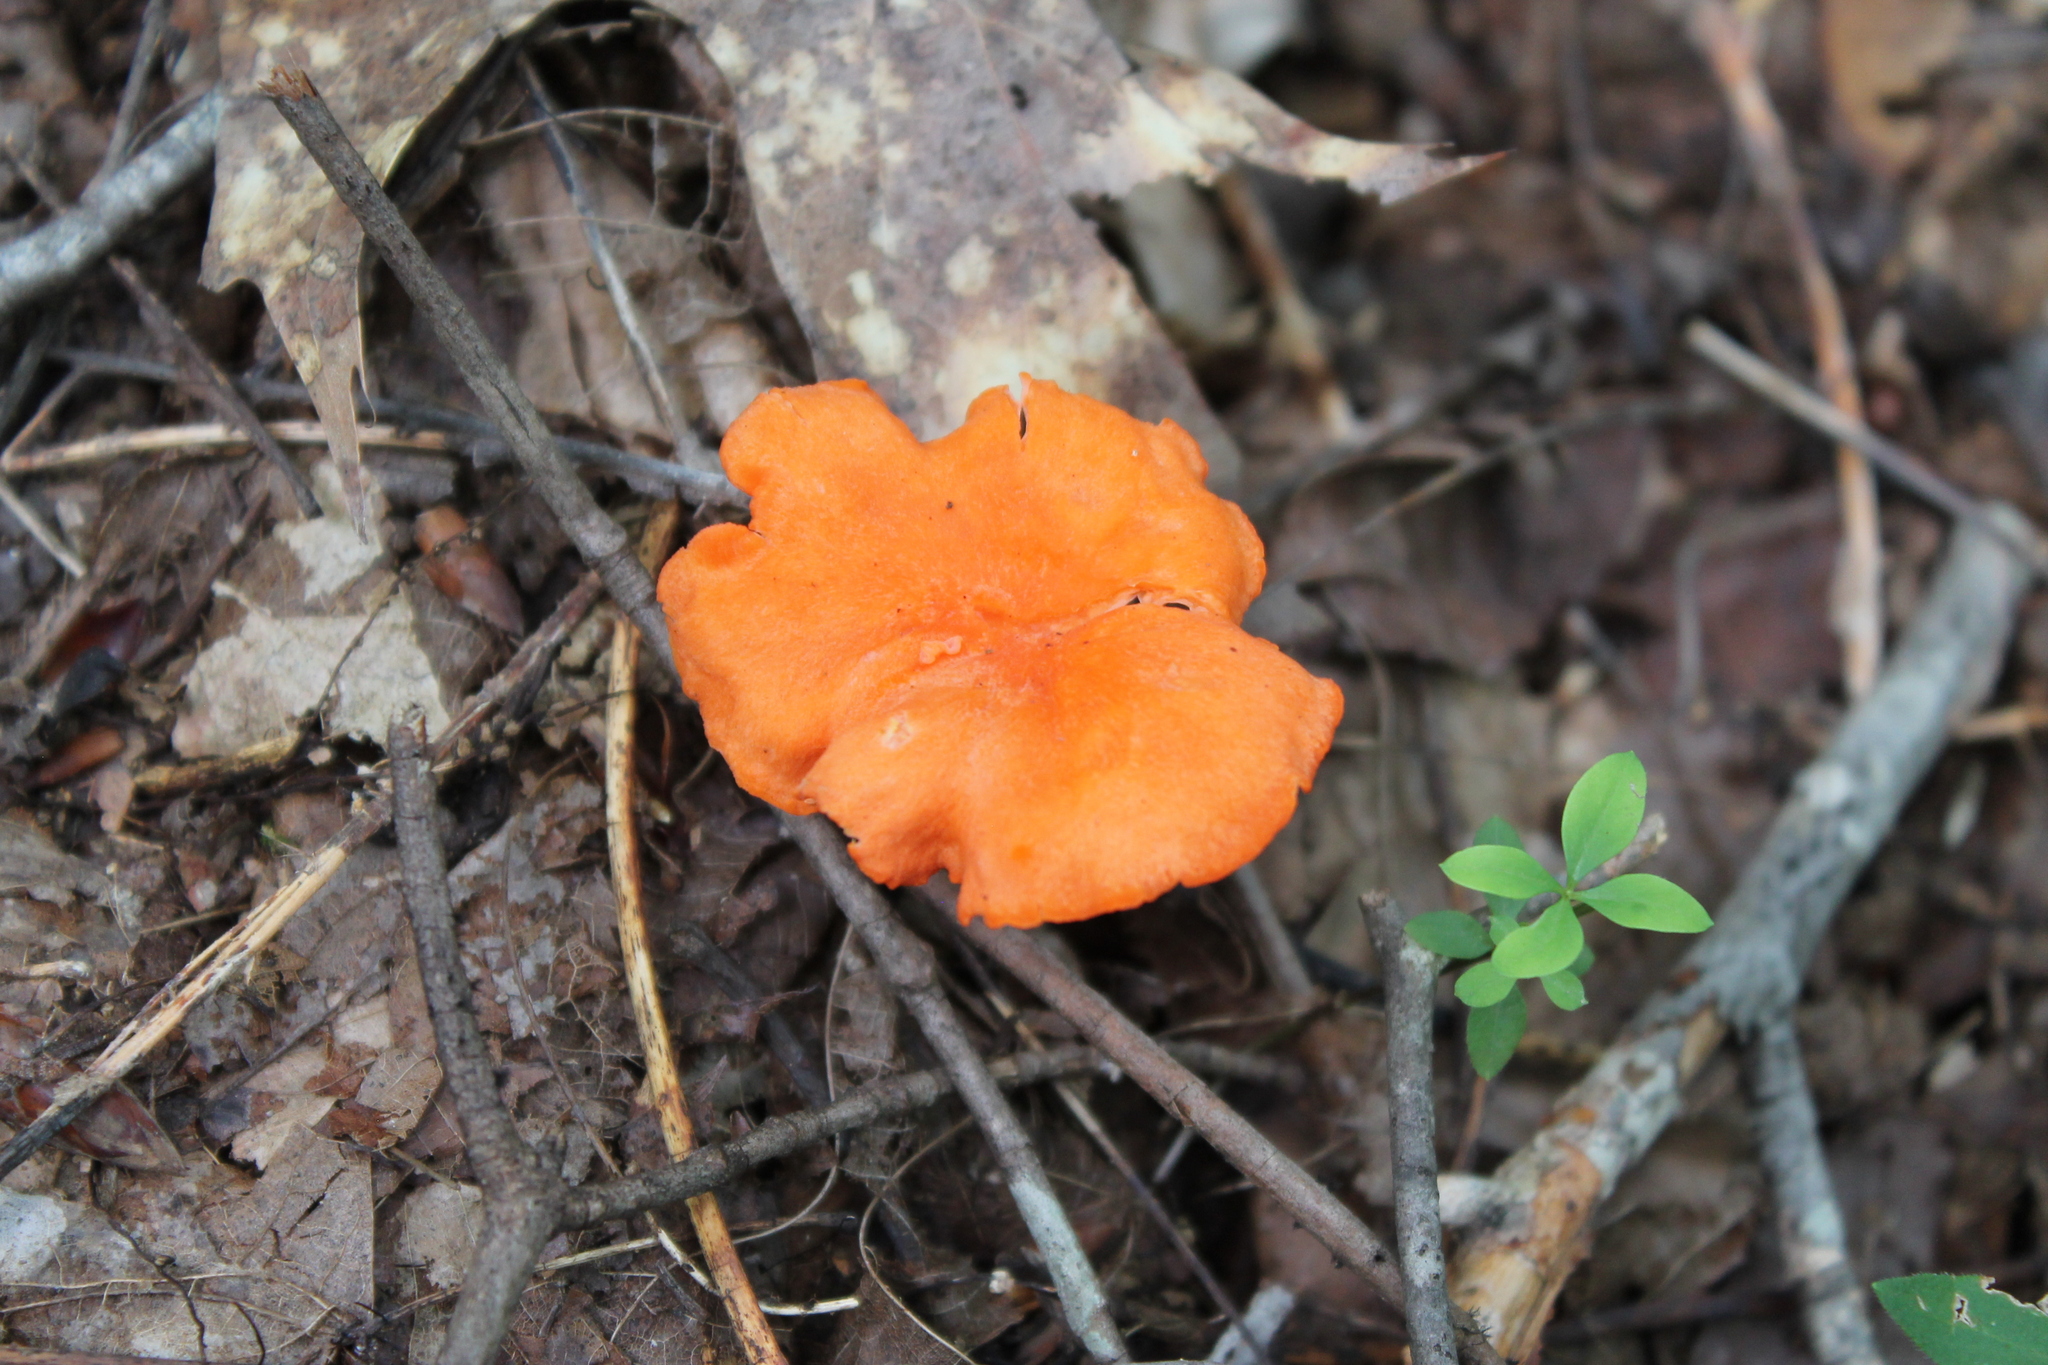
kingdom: Fungi
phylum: Basidiomycota
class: Agaricomycetes
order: Cantharellales
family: Hydnaceae
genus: Cantharellus
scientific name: Cantharellus cinnabarinus
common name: Cinnabar chanterelle
